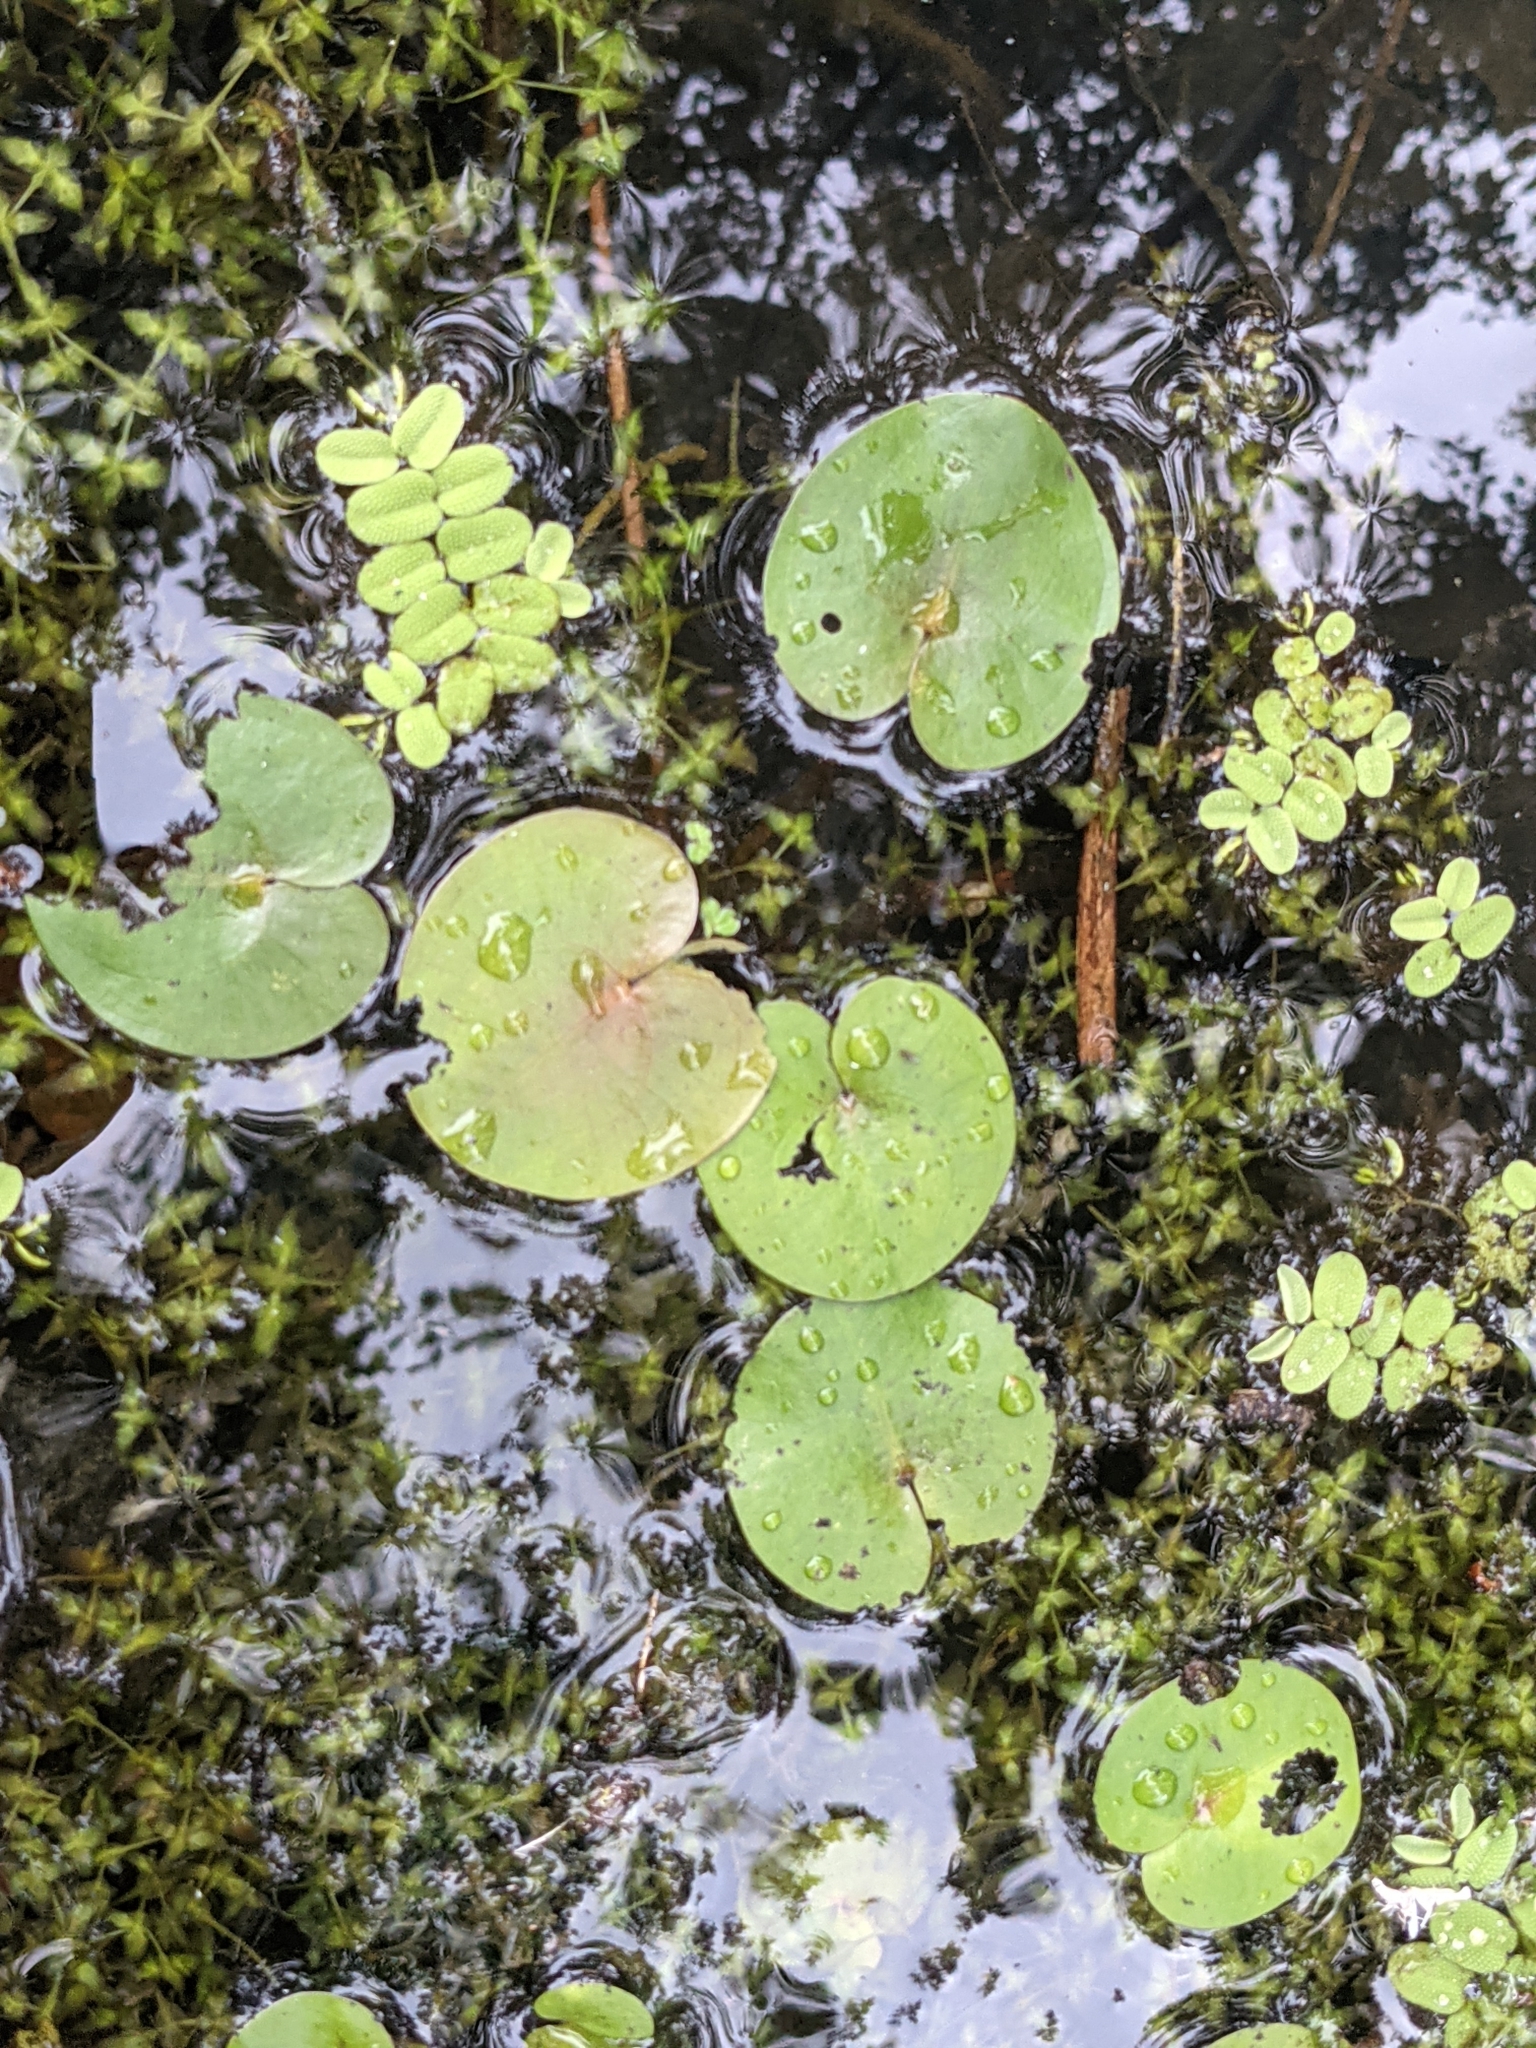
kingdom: Plantae
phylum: Tracheophyta
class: Liliopsida
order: Alismatales
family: Hydrocharitaceae
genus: Hydrocharis
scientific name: Hydrocharis morsus-ranae
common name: Frogbit
